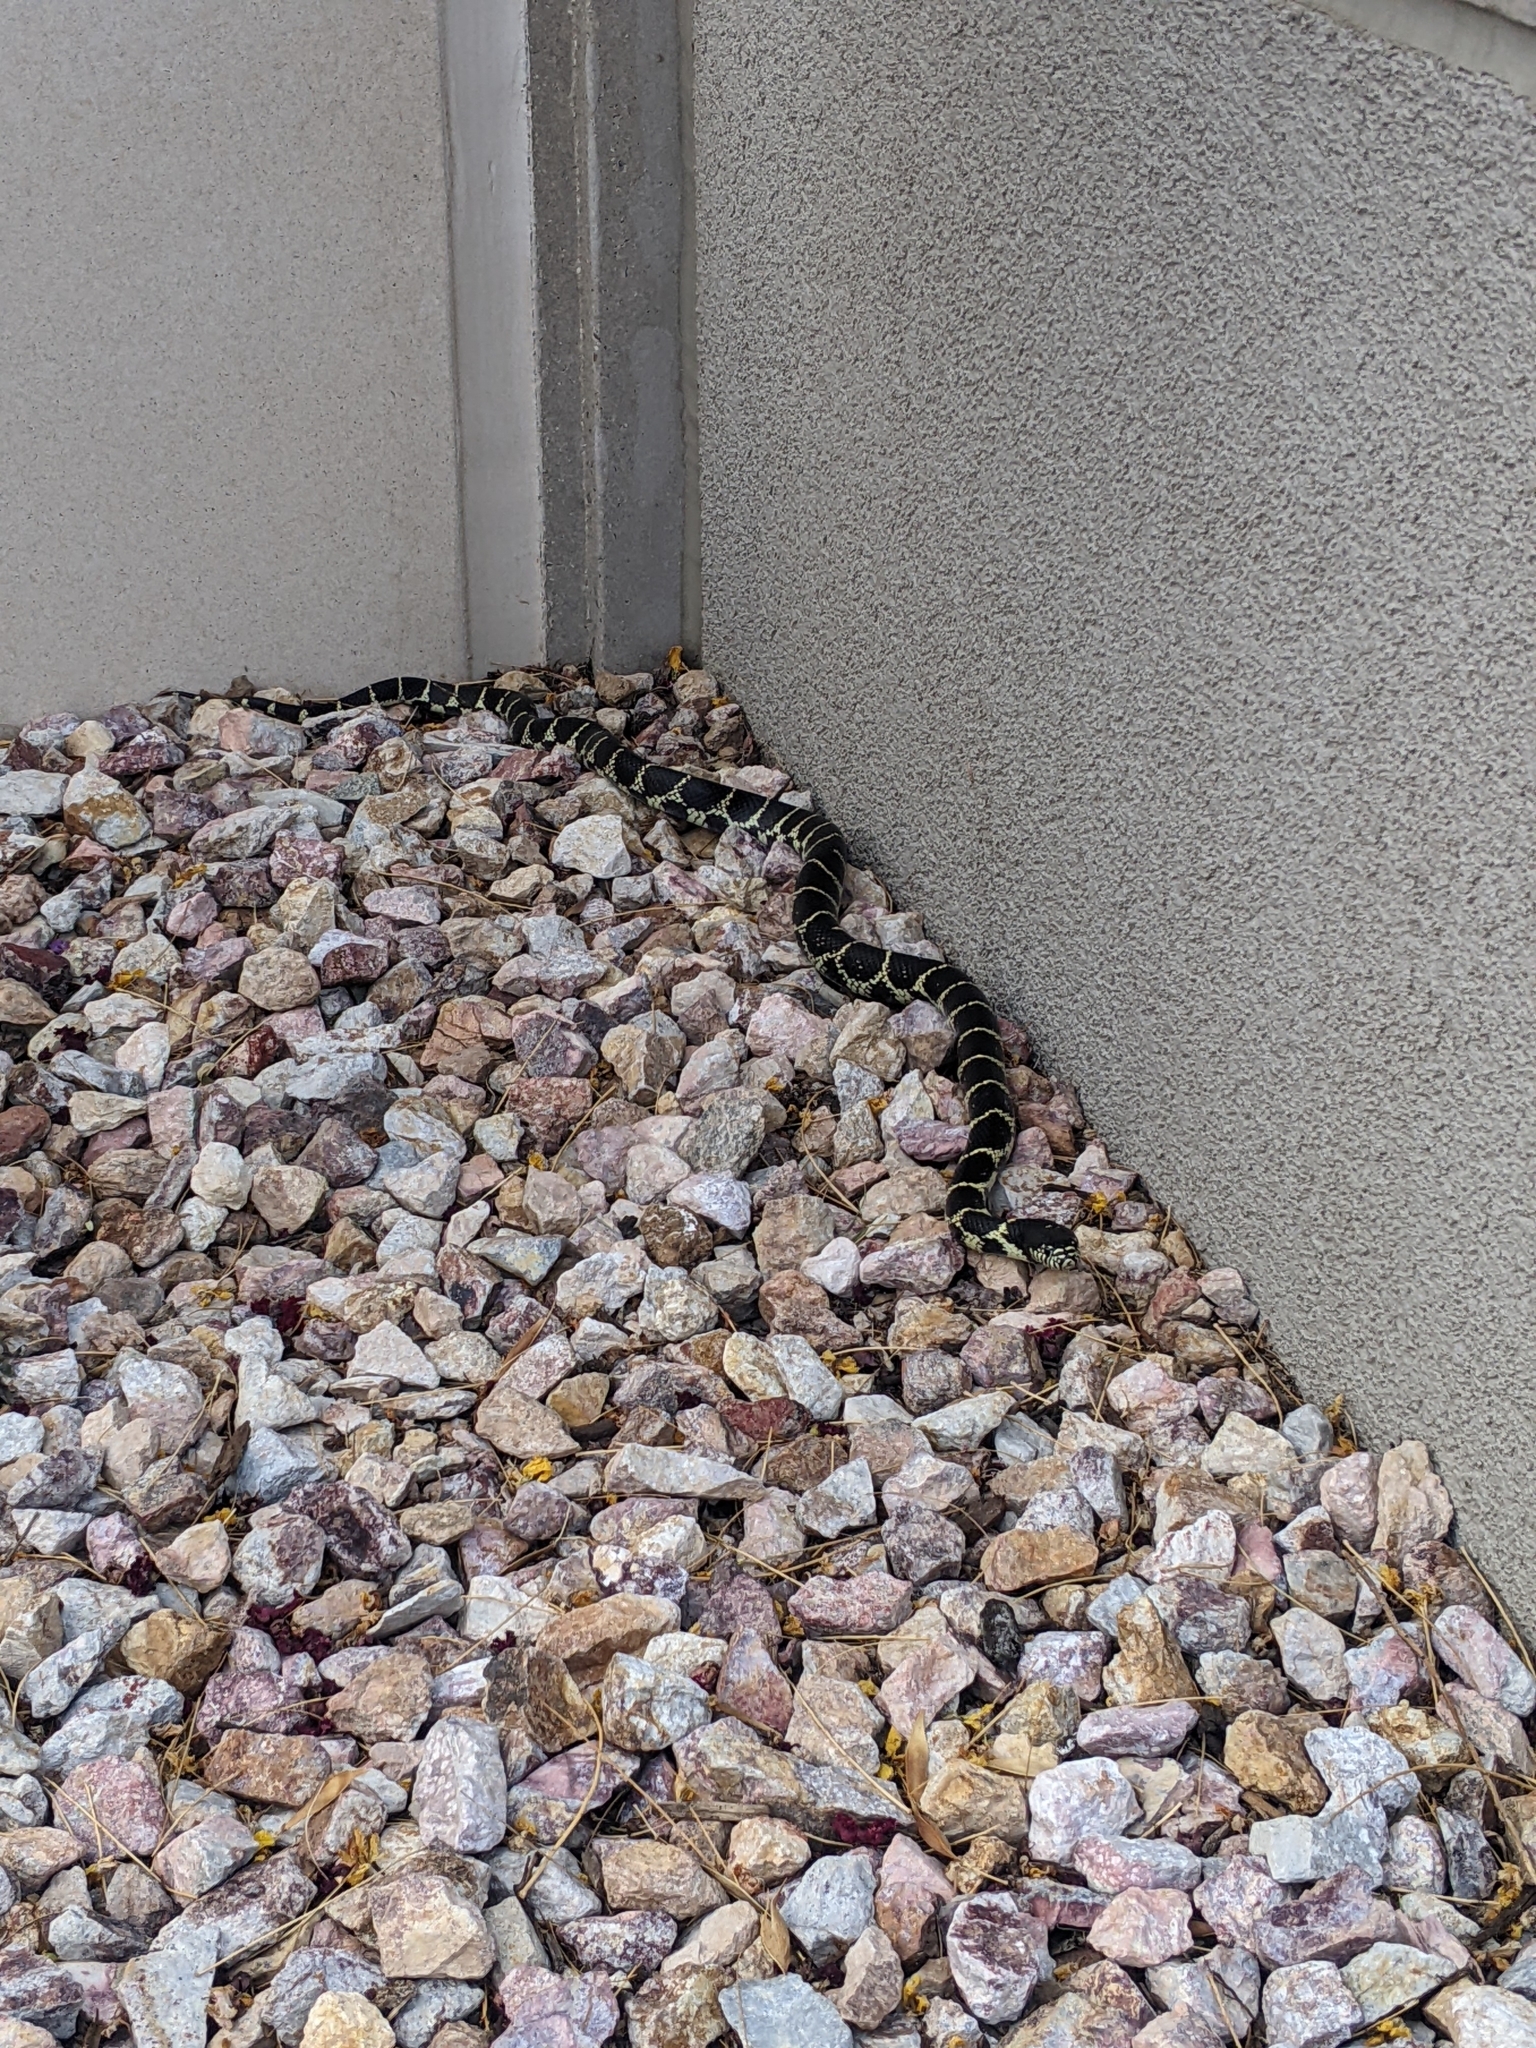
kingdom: Animalia
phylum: Chordata
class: Squamata
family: Colubridae
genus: Lampropeltis
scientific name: Lampropeltis splendida
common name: Desert kingsnake
